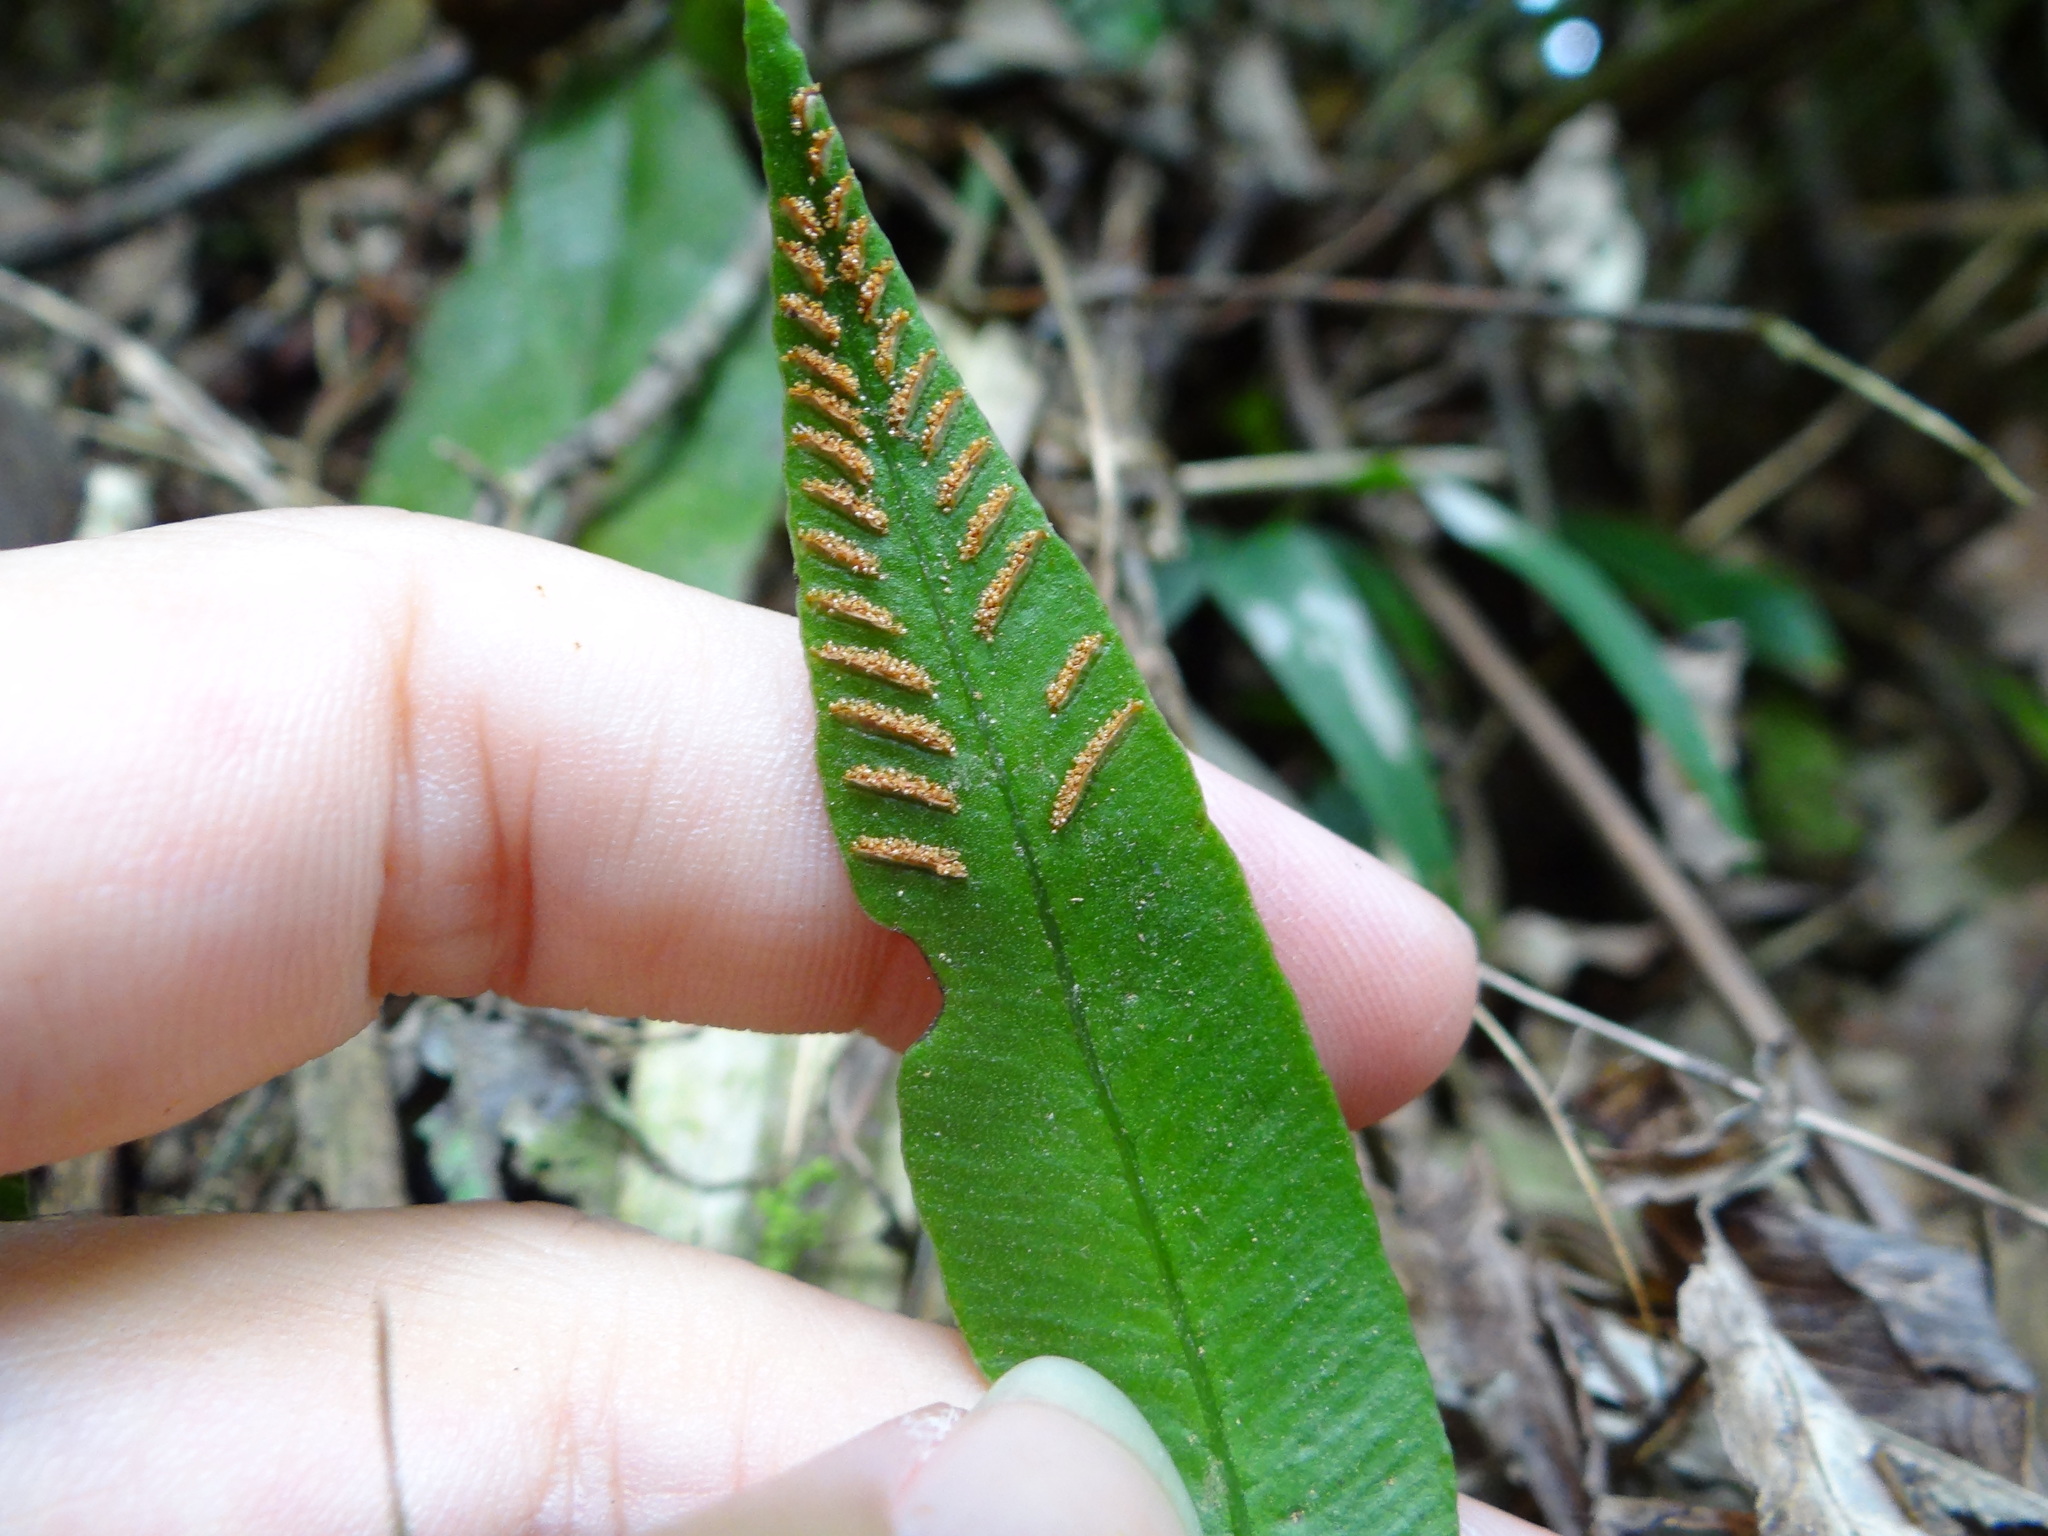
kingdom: Plantae
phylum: Tracheophyta
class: Polypodiopsida
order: Polypodiales
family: Athyriaceae
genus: Deparia
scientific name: Deparia lancea
